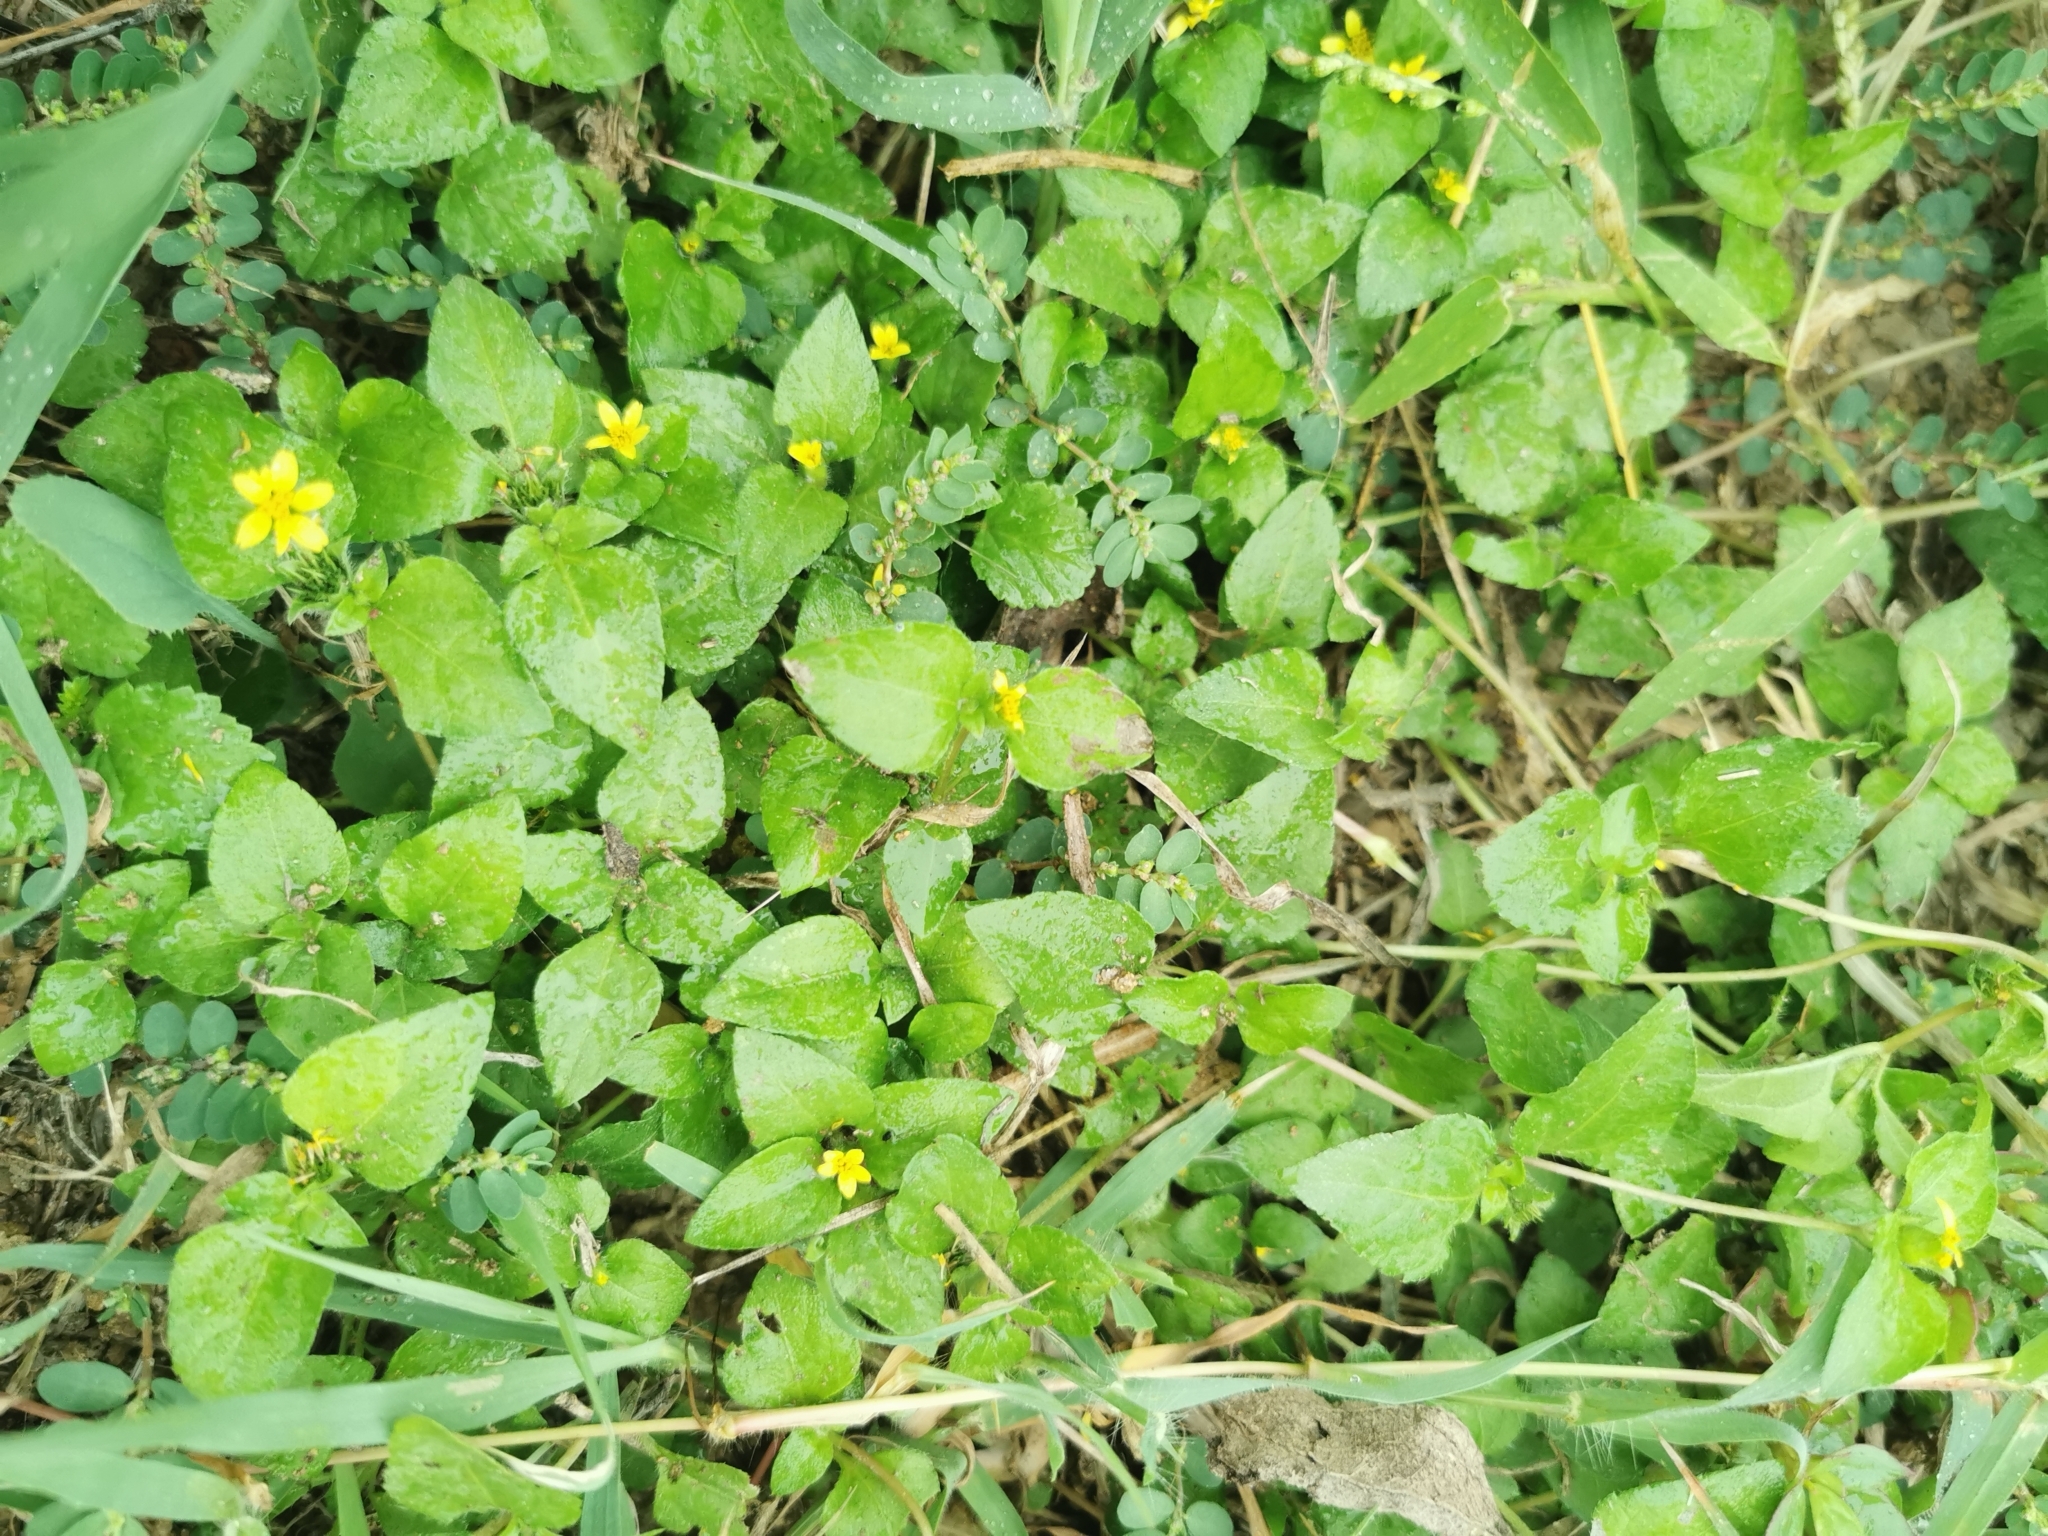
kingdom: Plantae
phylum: Tracheophyta
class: Magnoliopsida
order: Asterales
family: Asteraceae
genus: Calyptocarpus
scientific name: Calyptocarpus vialis
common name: Straggler daisy
